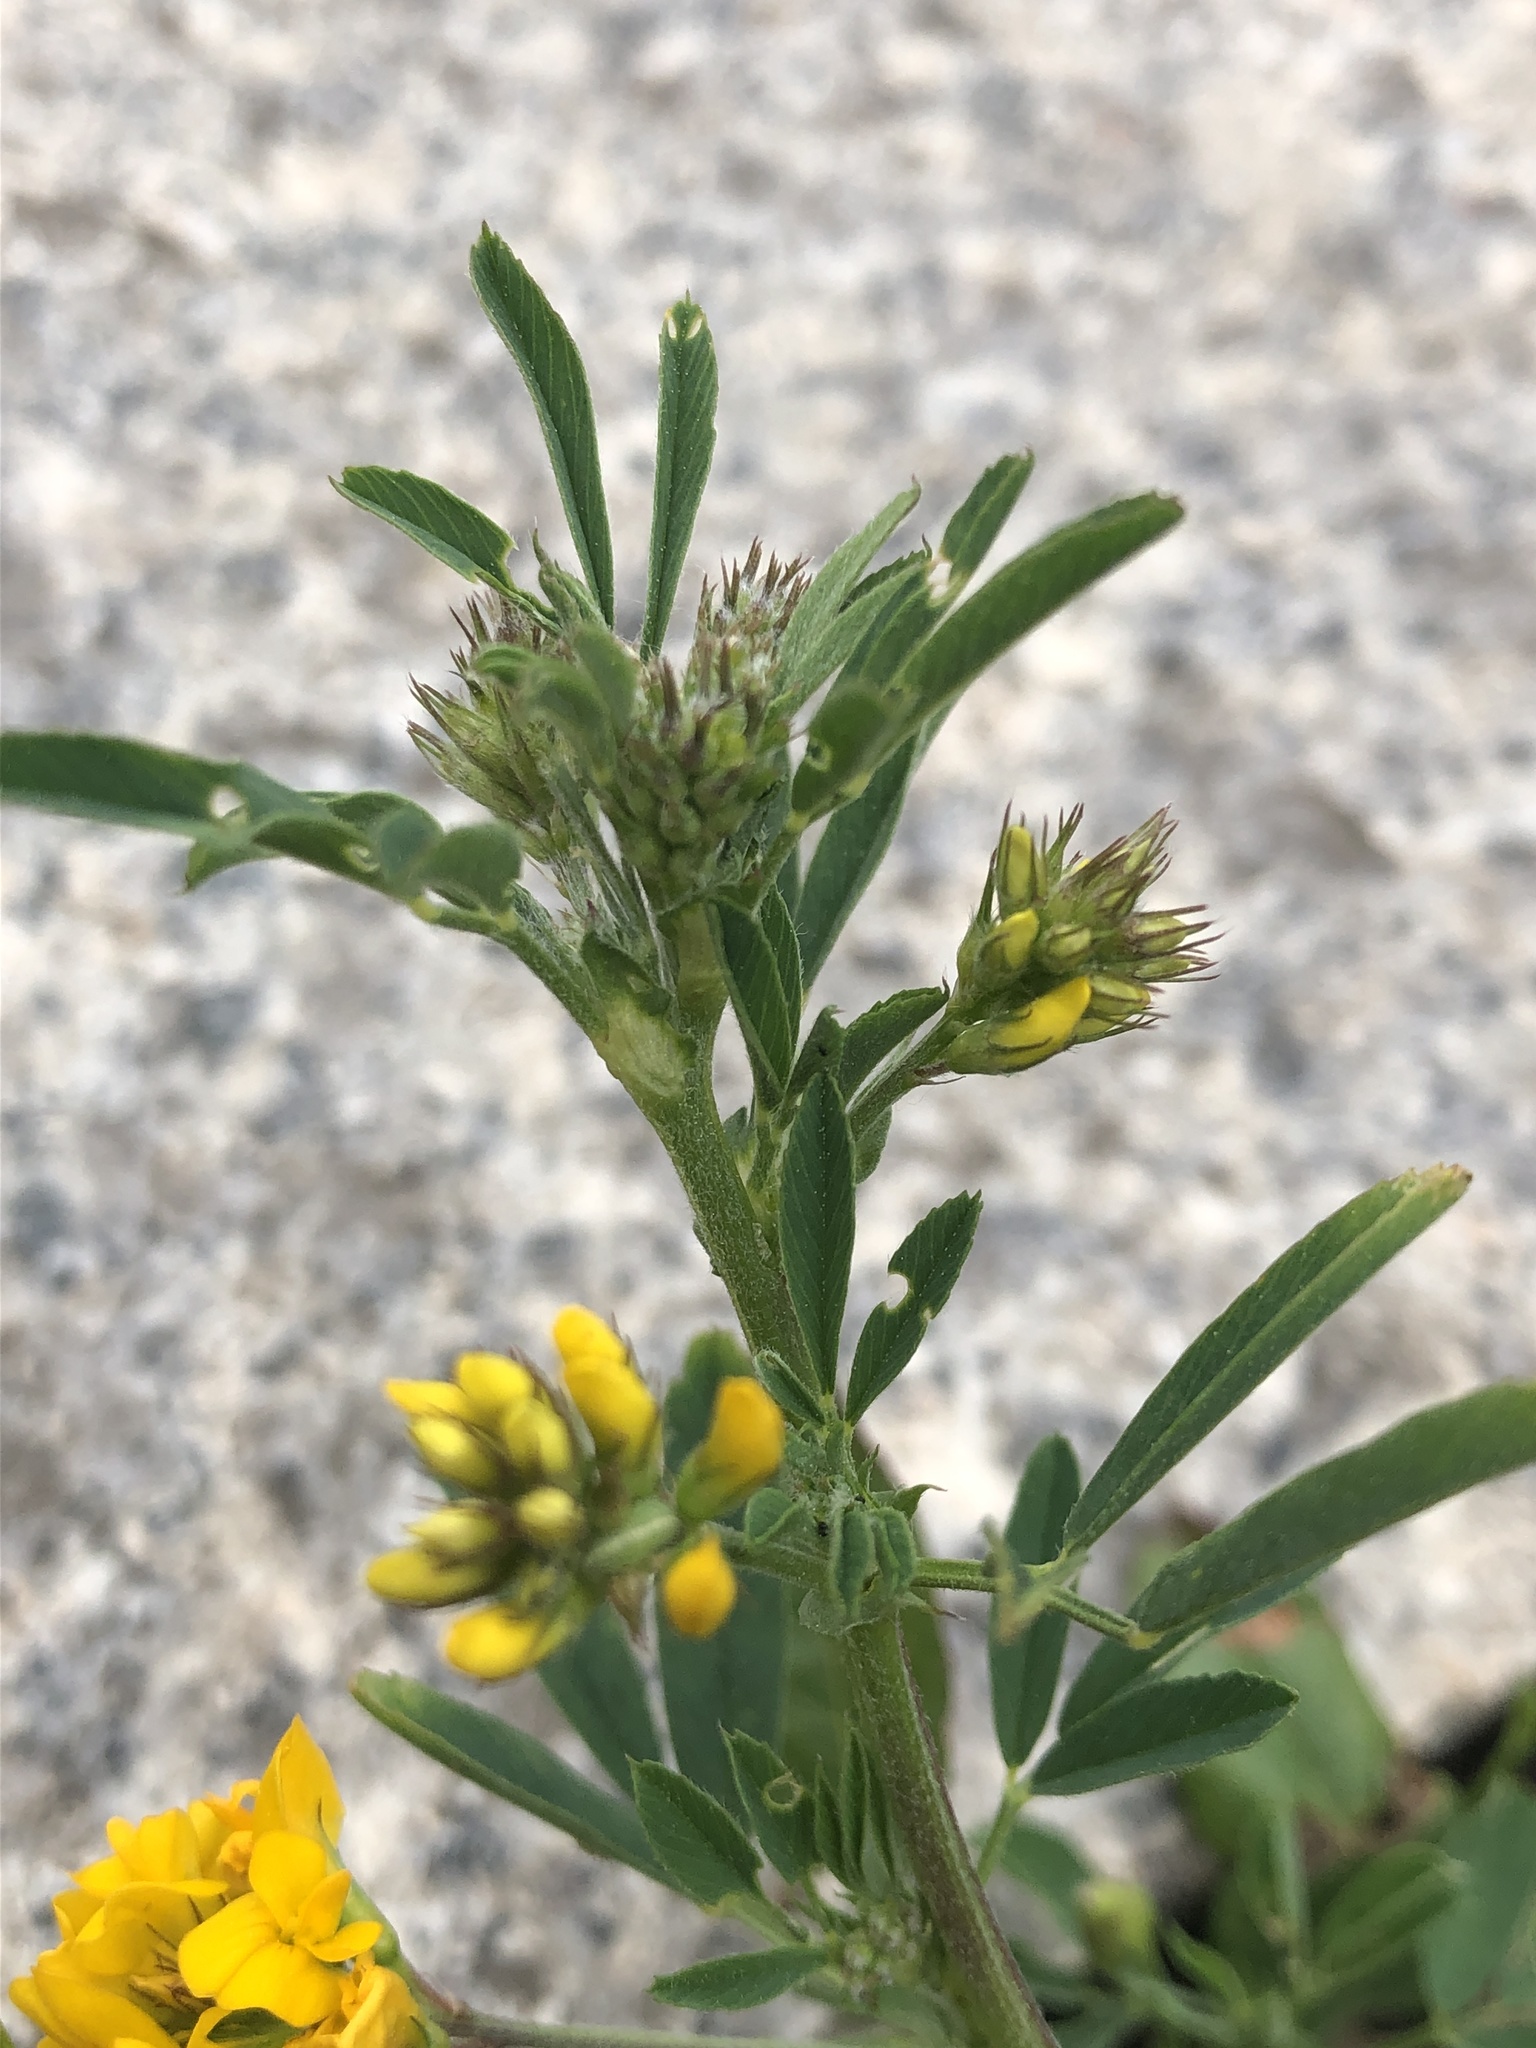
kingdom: Plantae
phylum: Tracheophyta
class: Magnoliopsida
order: Fabales
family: Fabaceae
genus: Medicago
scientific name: Medicago falcata
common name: Sickle medick
